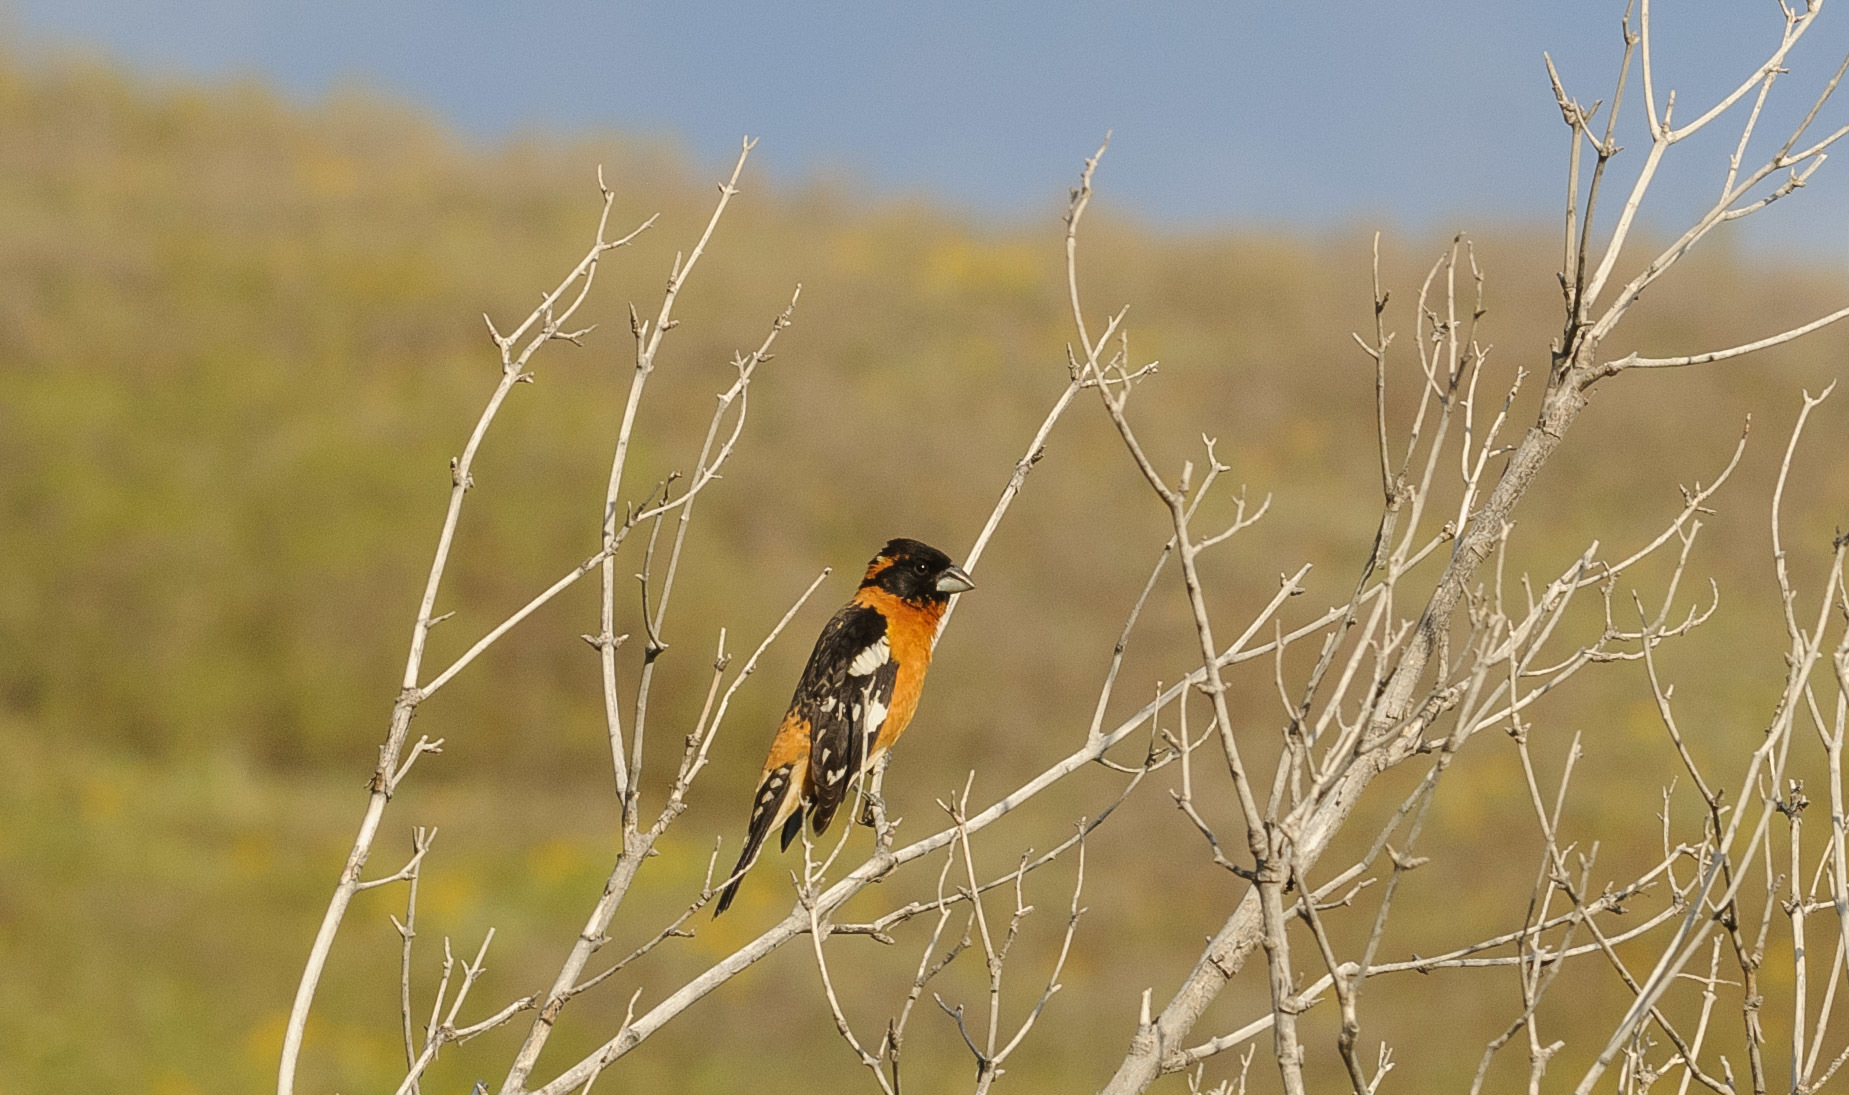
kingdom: Animalia
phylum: Chordata
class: Aves
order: Passeriformes
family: Cardinalidae
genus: Pheucticus
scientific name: Pheucticus melanocephalus
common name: Black-headed grosbeak
